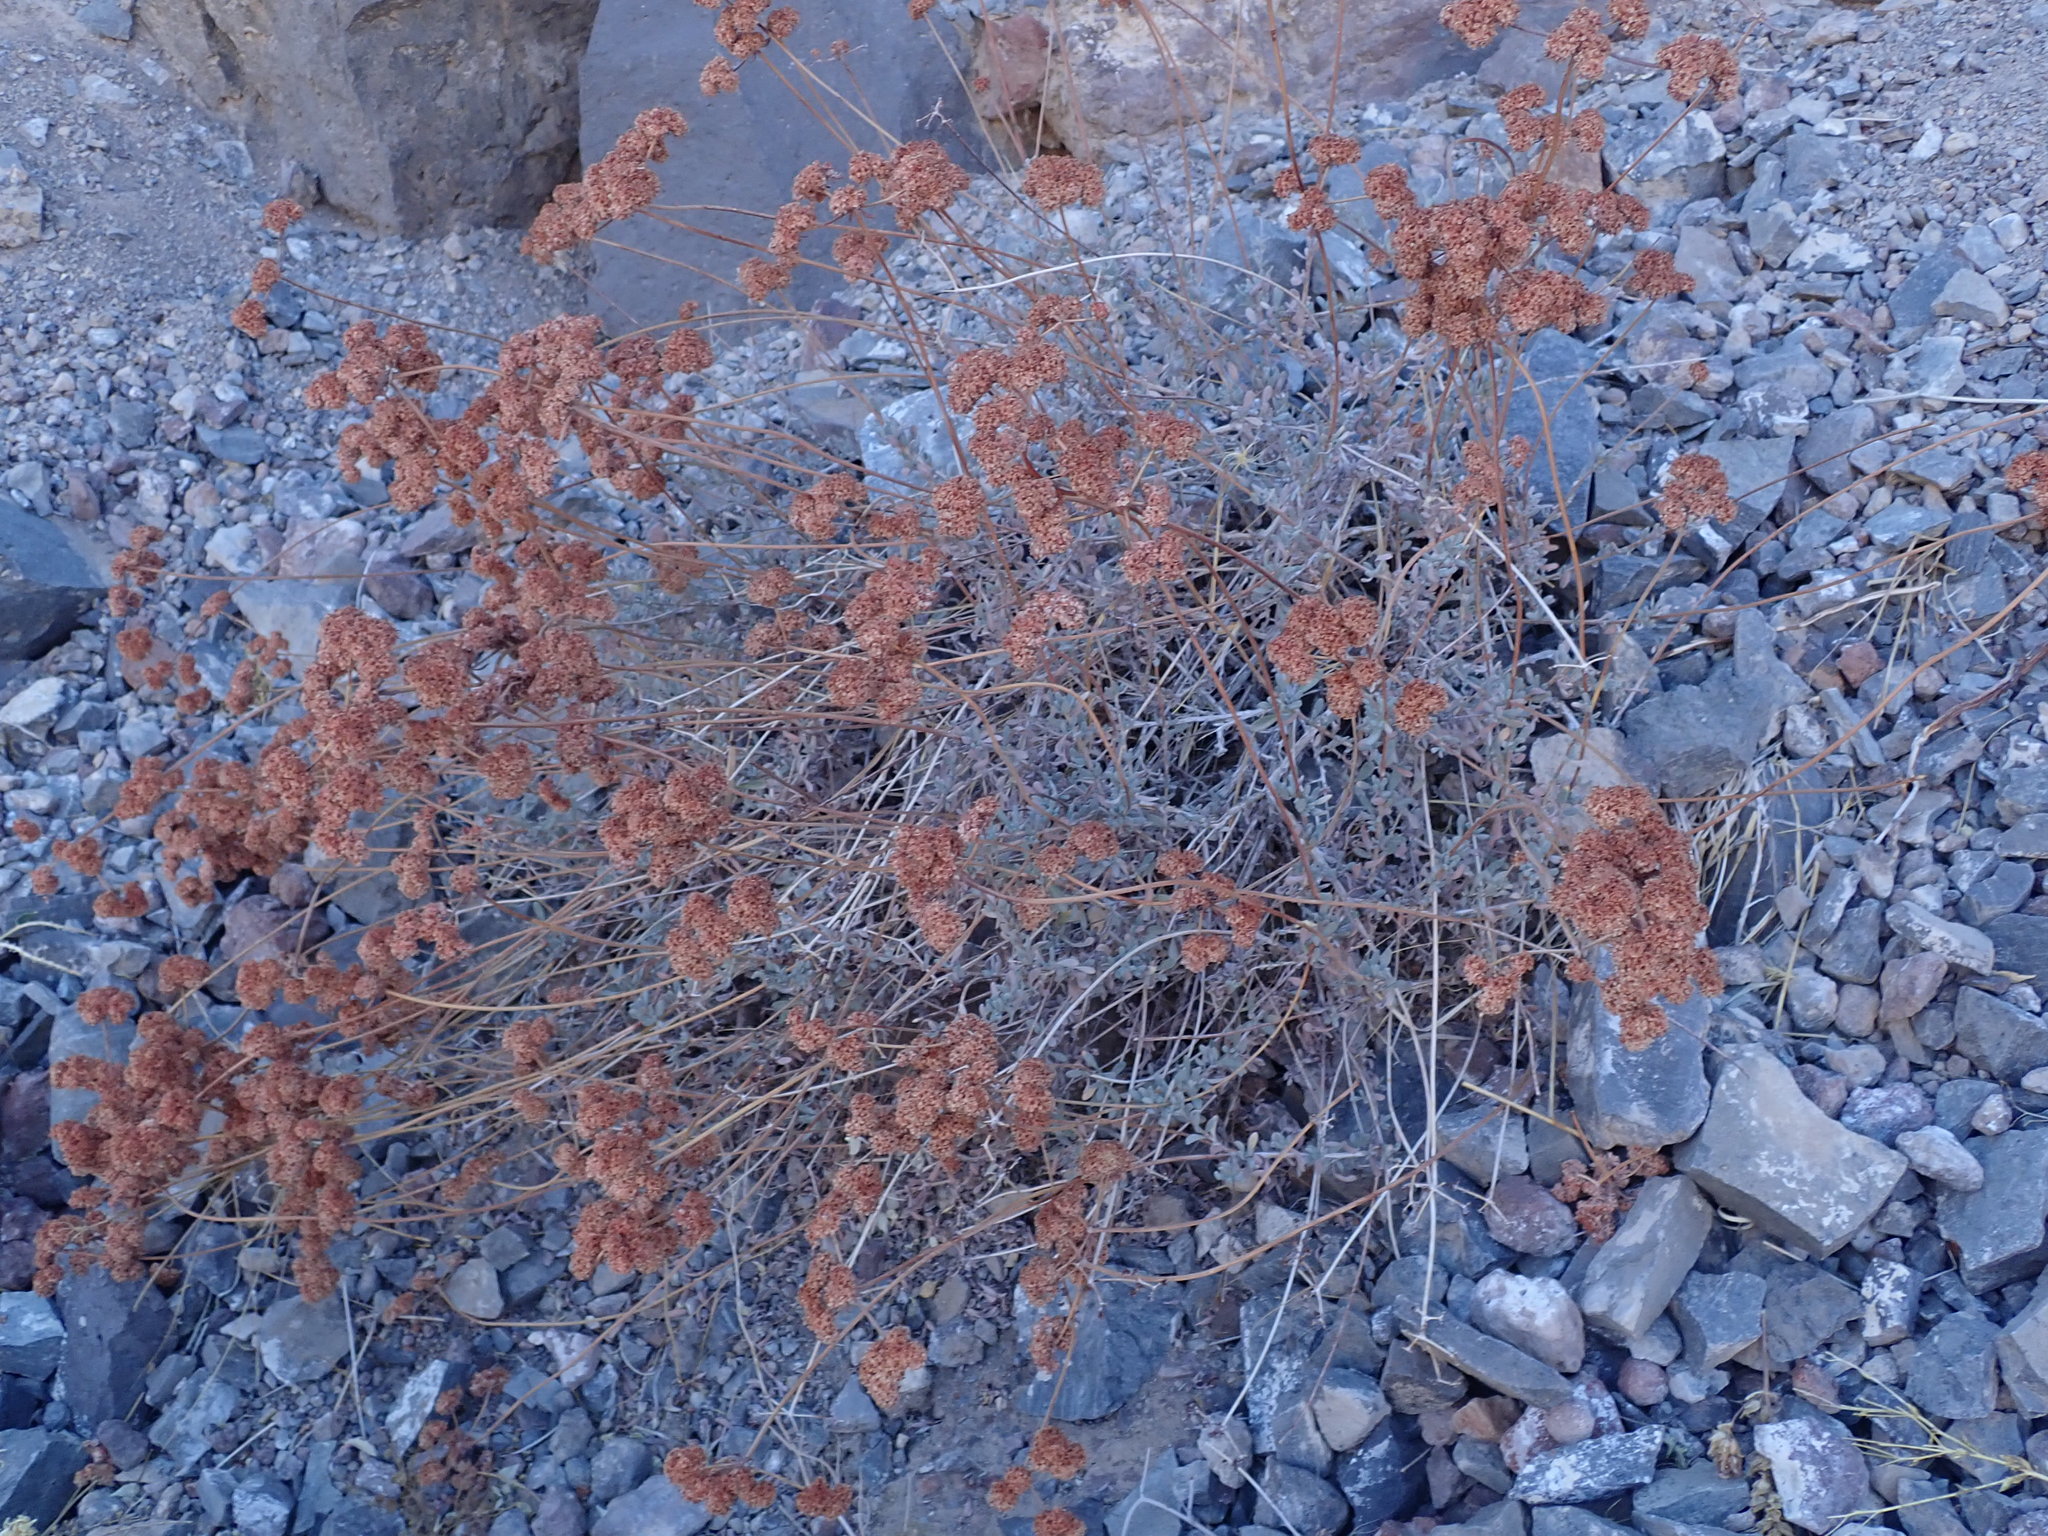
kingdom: Plantae
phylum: Tracheophyta
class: Magnoliopsida
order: Caryophyllales
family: Polygonaceae
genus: Eriogonum
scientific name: Eriogonum fasciculatum
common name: California wild buckwheat
